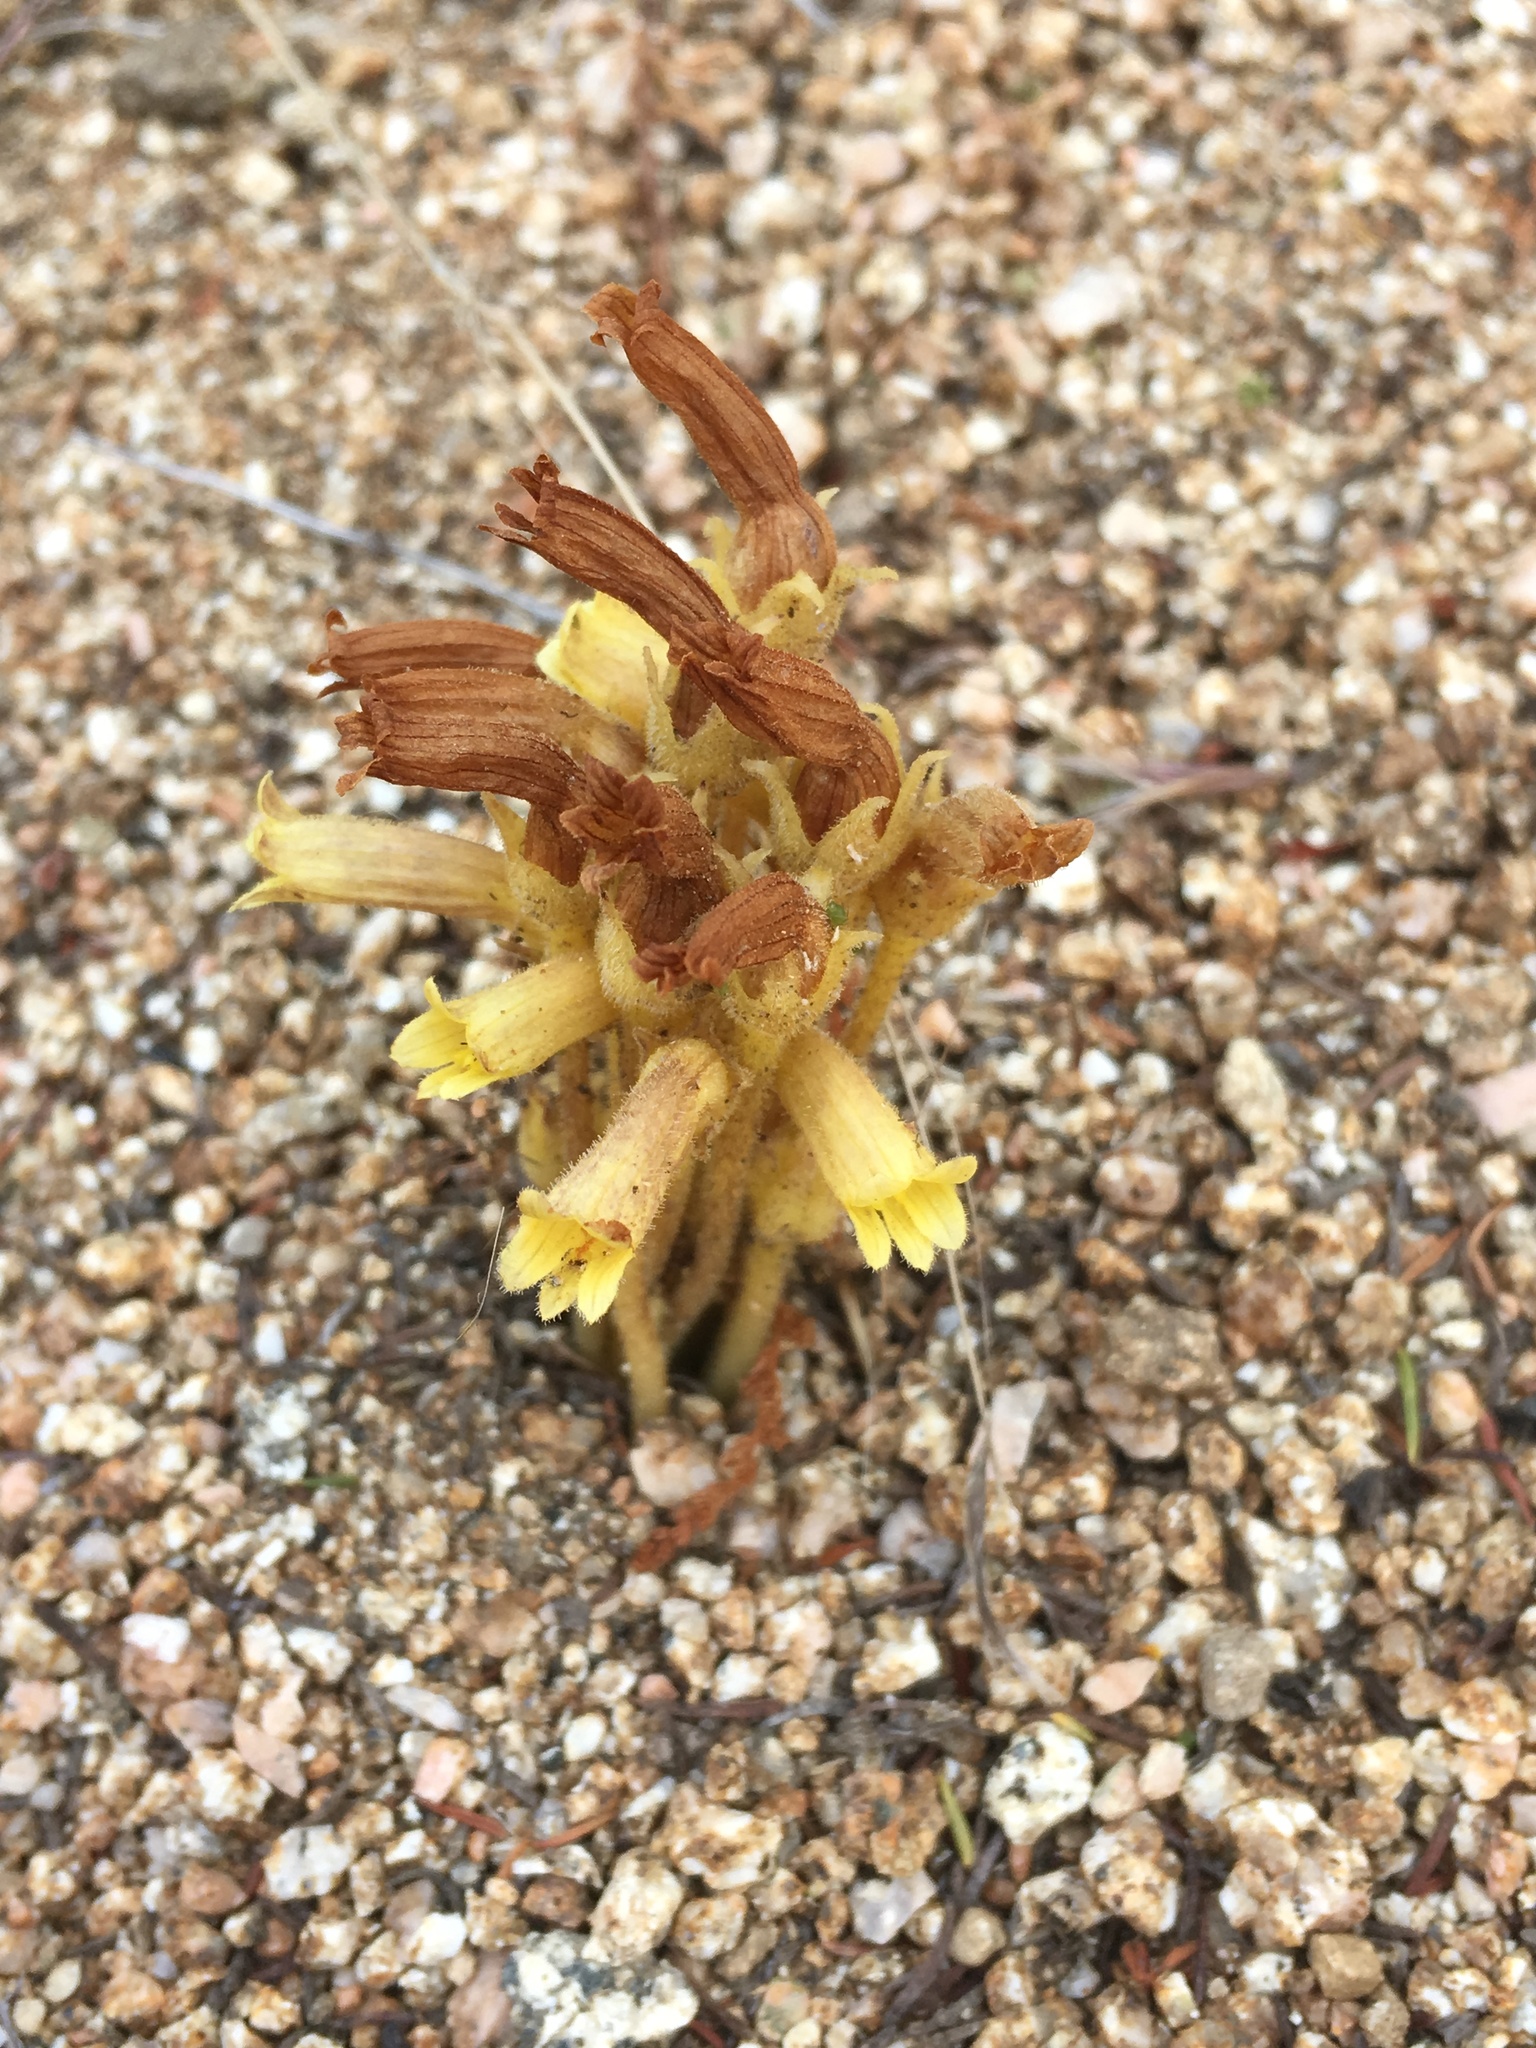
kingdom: Plantae
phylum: Tracheophyta
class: Magnoliopsida
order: Lamiales
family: Orobanchaceae
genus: Aphyllon
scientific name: Aphyllon franciscanum
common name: San francisco broomrape
